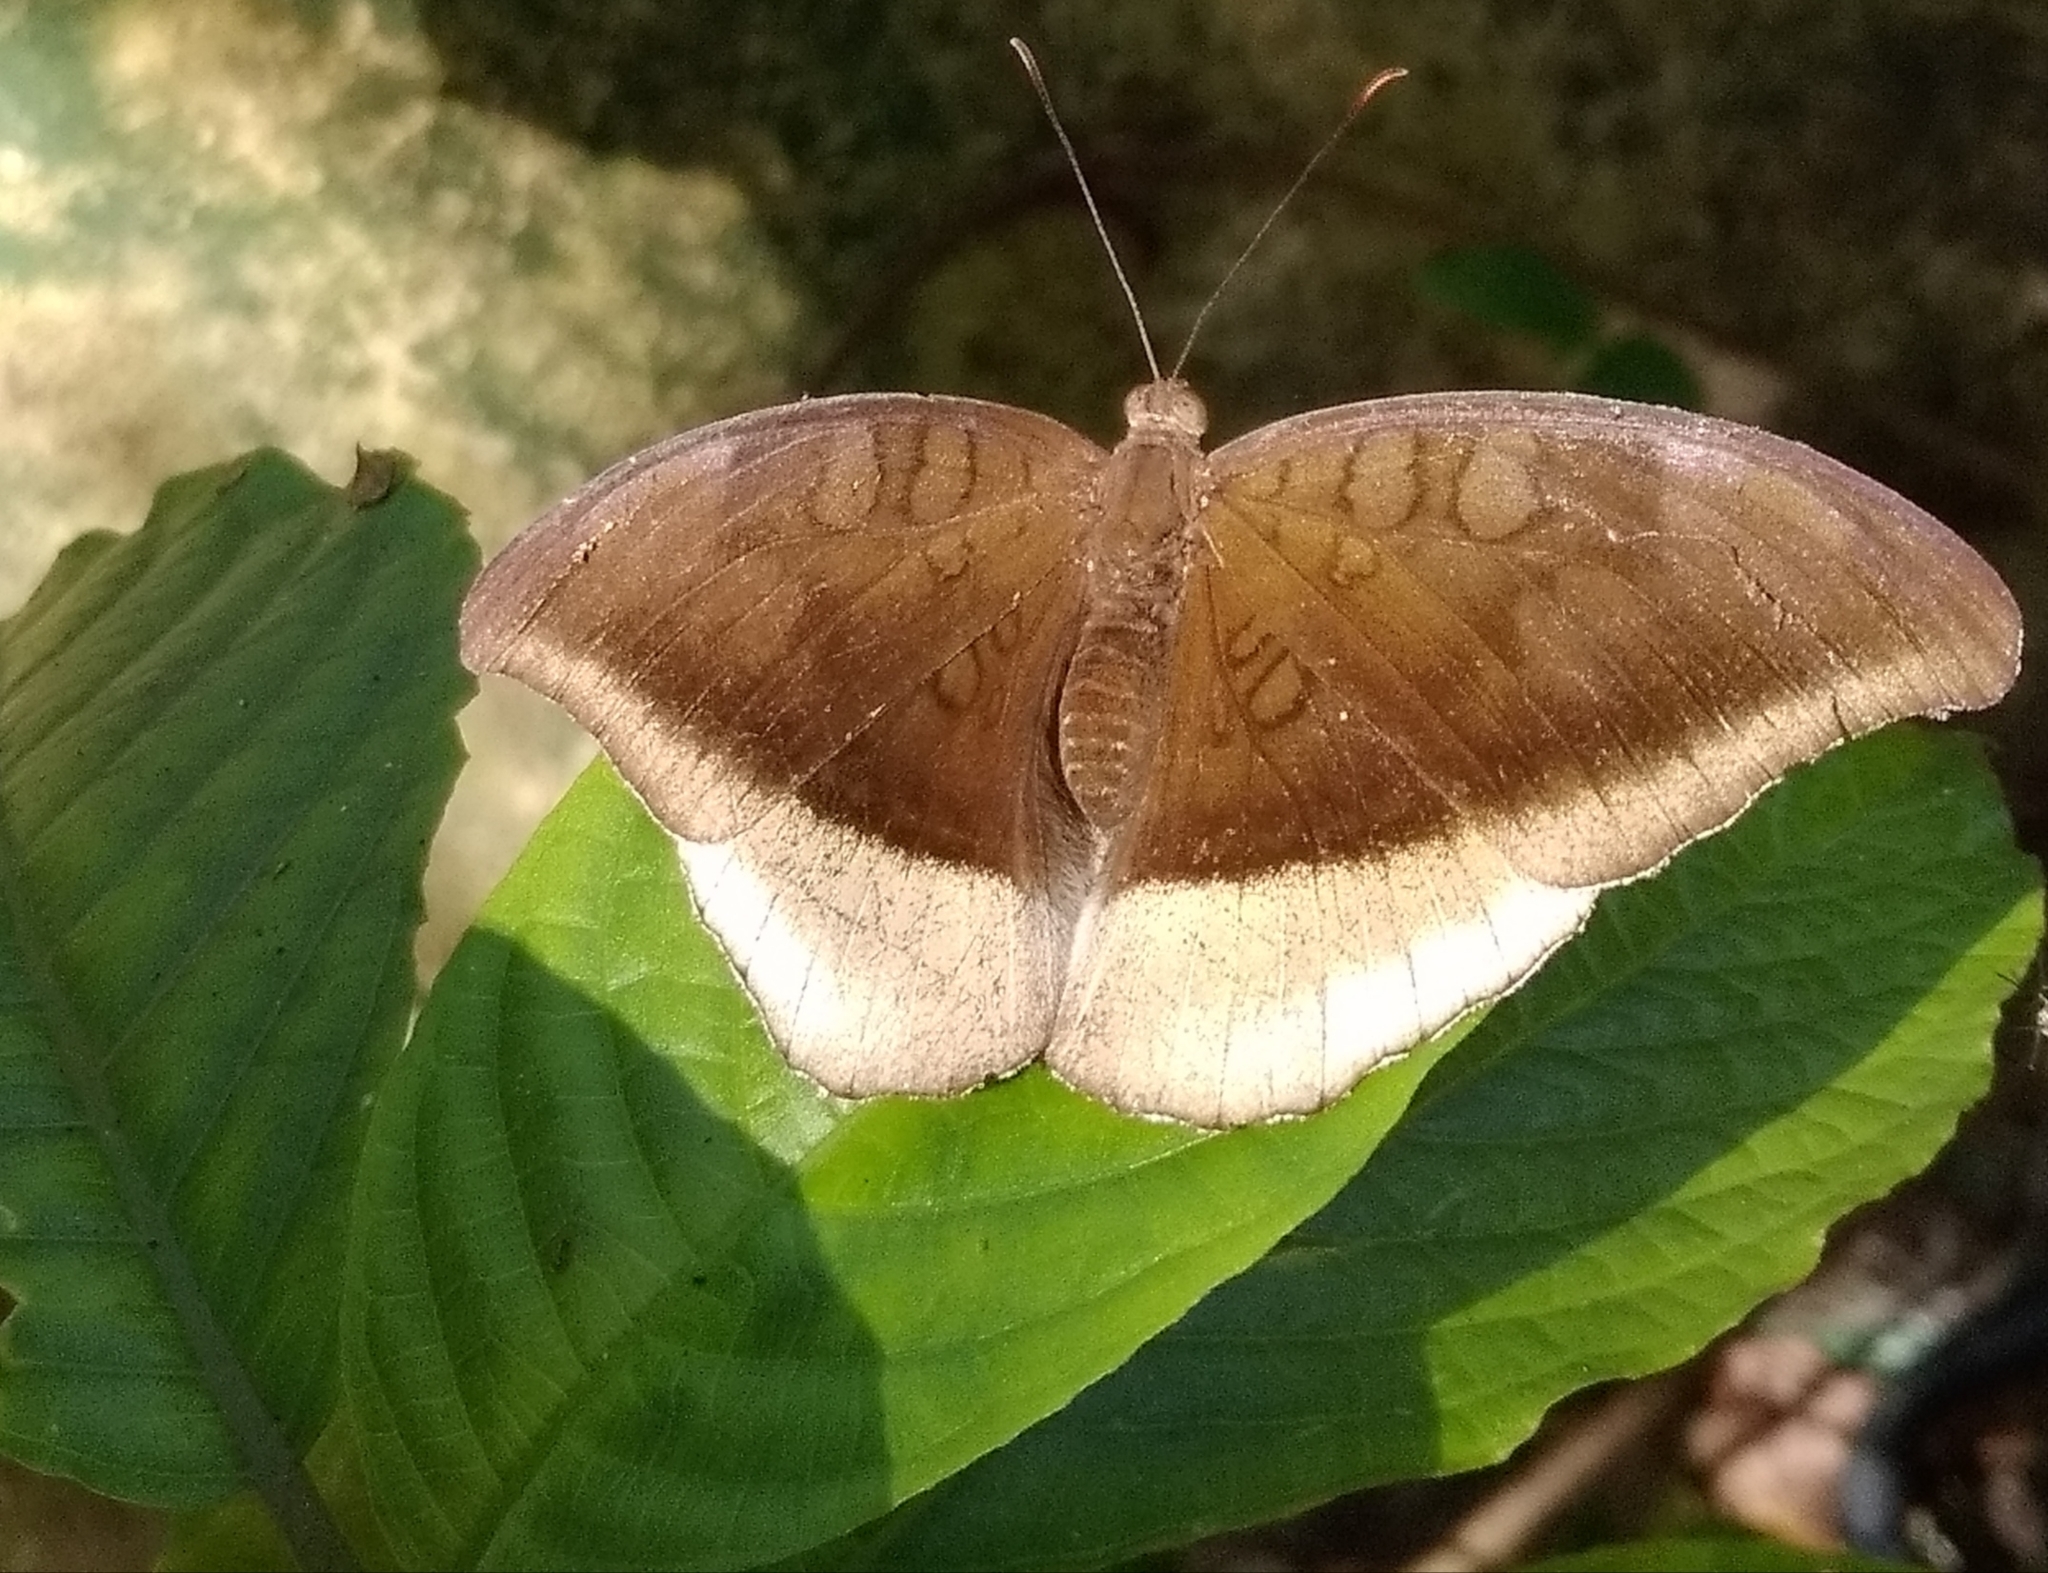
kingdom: Animalia
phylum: Arthropoda
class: Insecta
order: Lepidoptera
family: Nymphalidae
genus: Tanaecia
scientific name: Tanaecia lepidea
